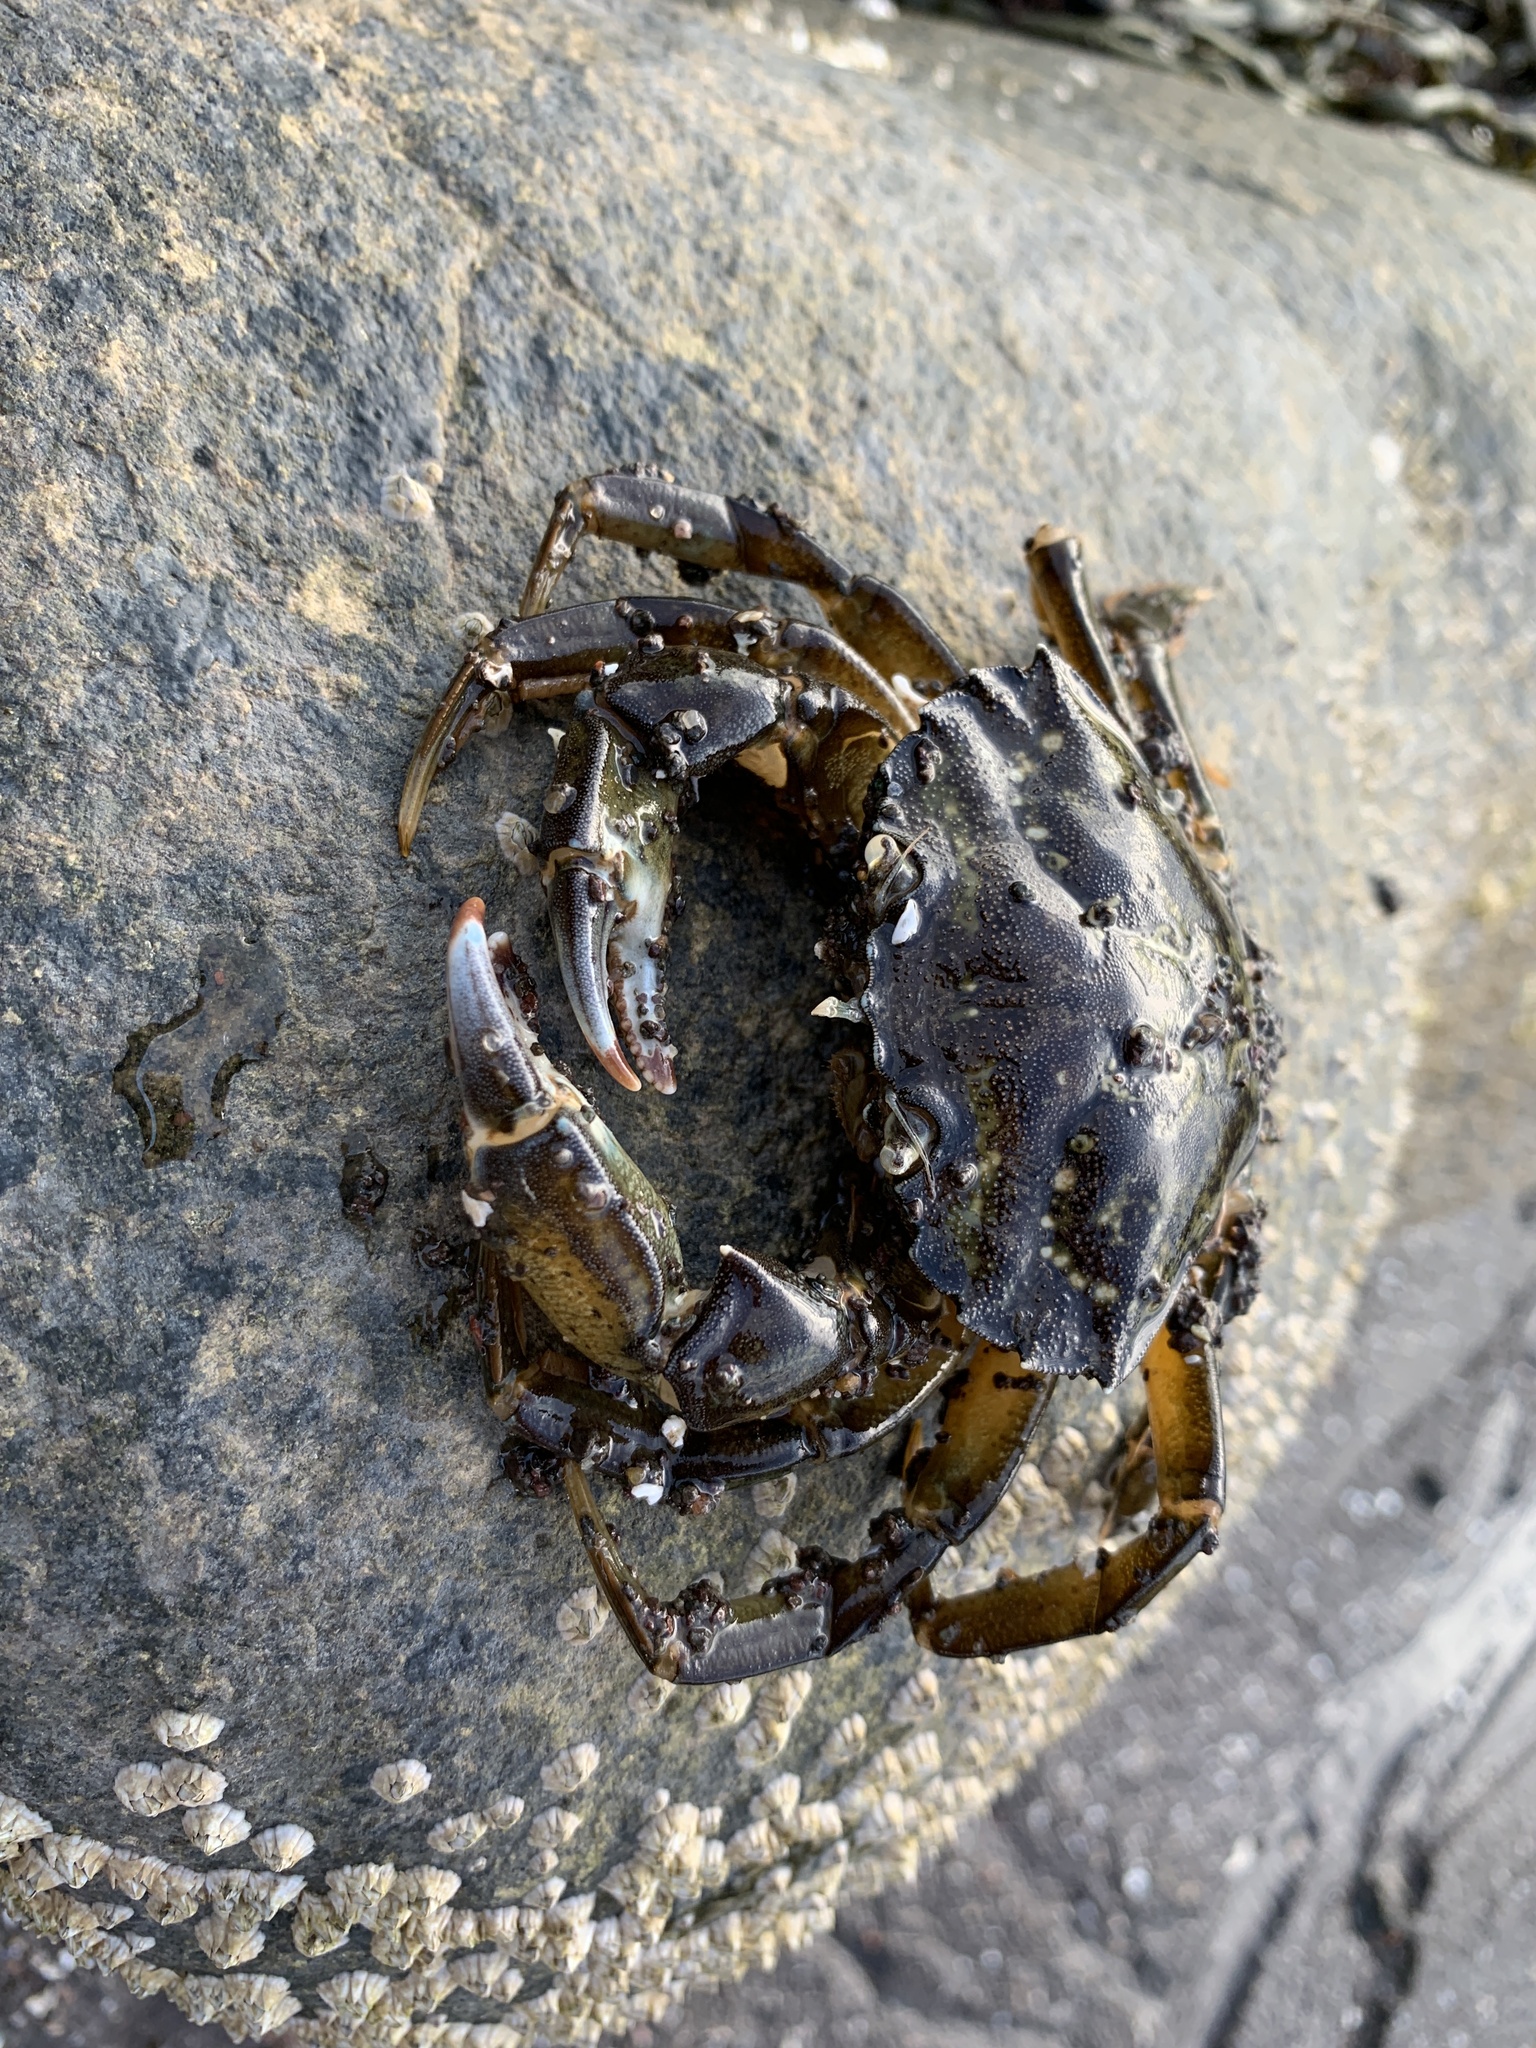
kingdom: Animalia
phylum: Arthropoda
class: Malacostraca
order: Decapoda
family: Carcinidae
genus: Carcinus
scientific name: Carcinus maenas
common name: European green crab
